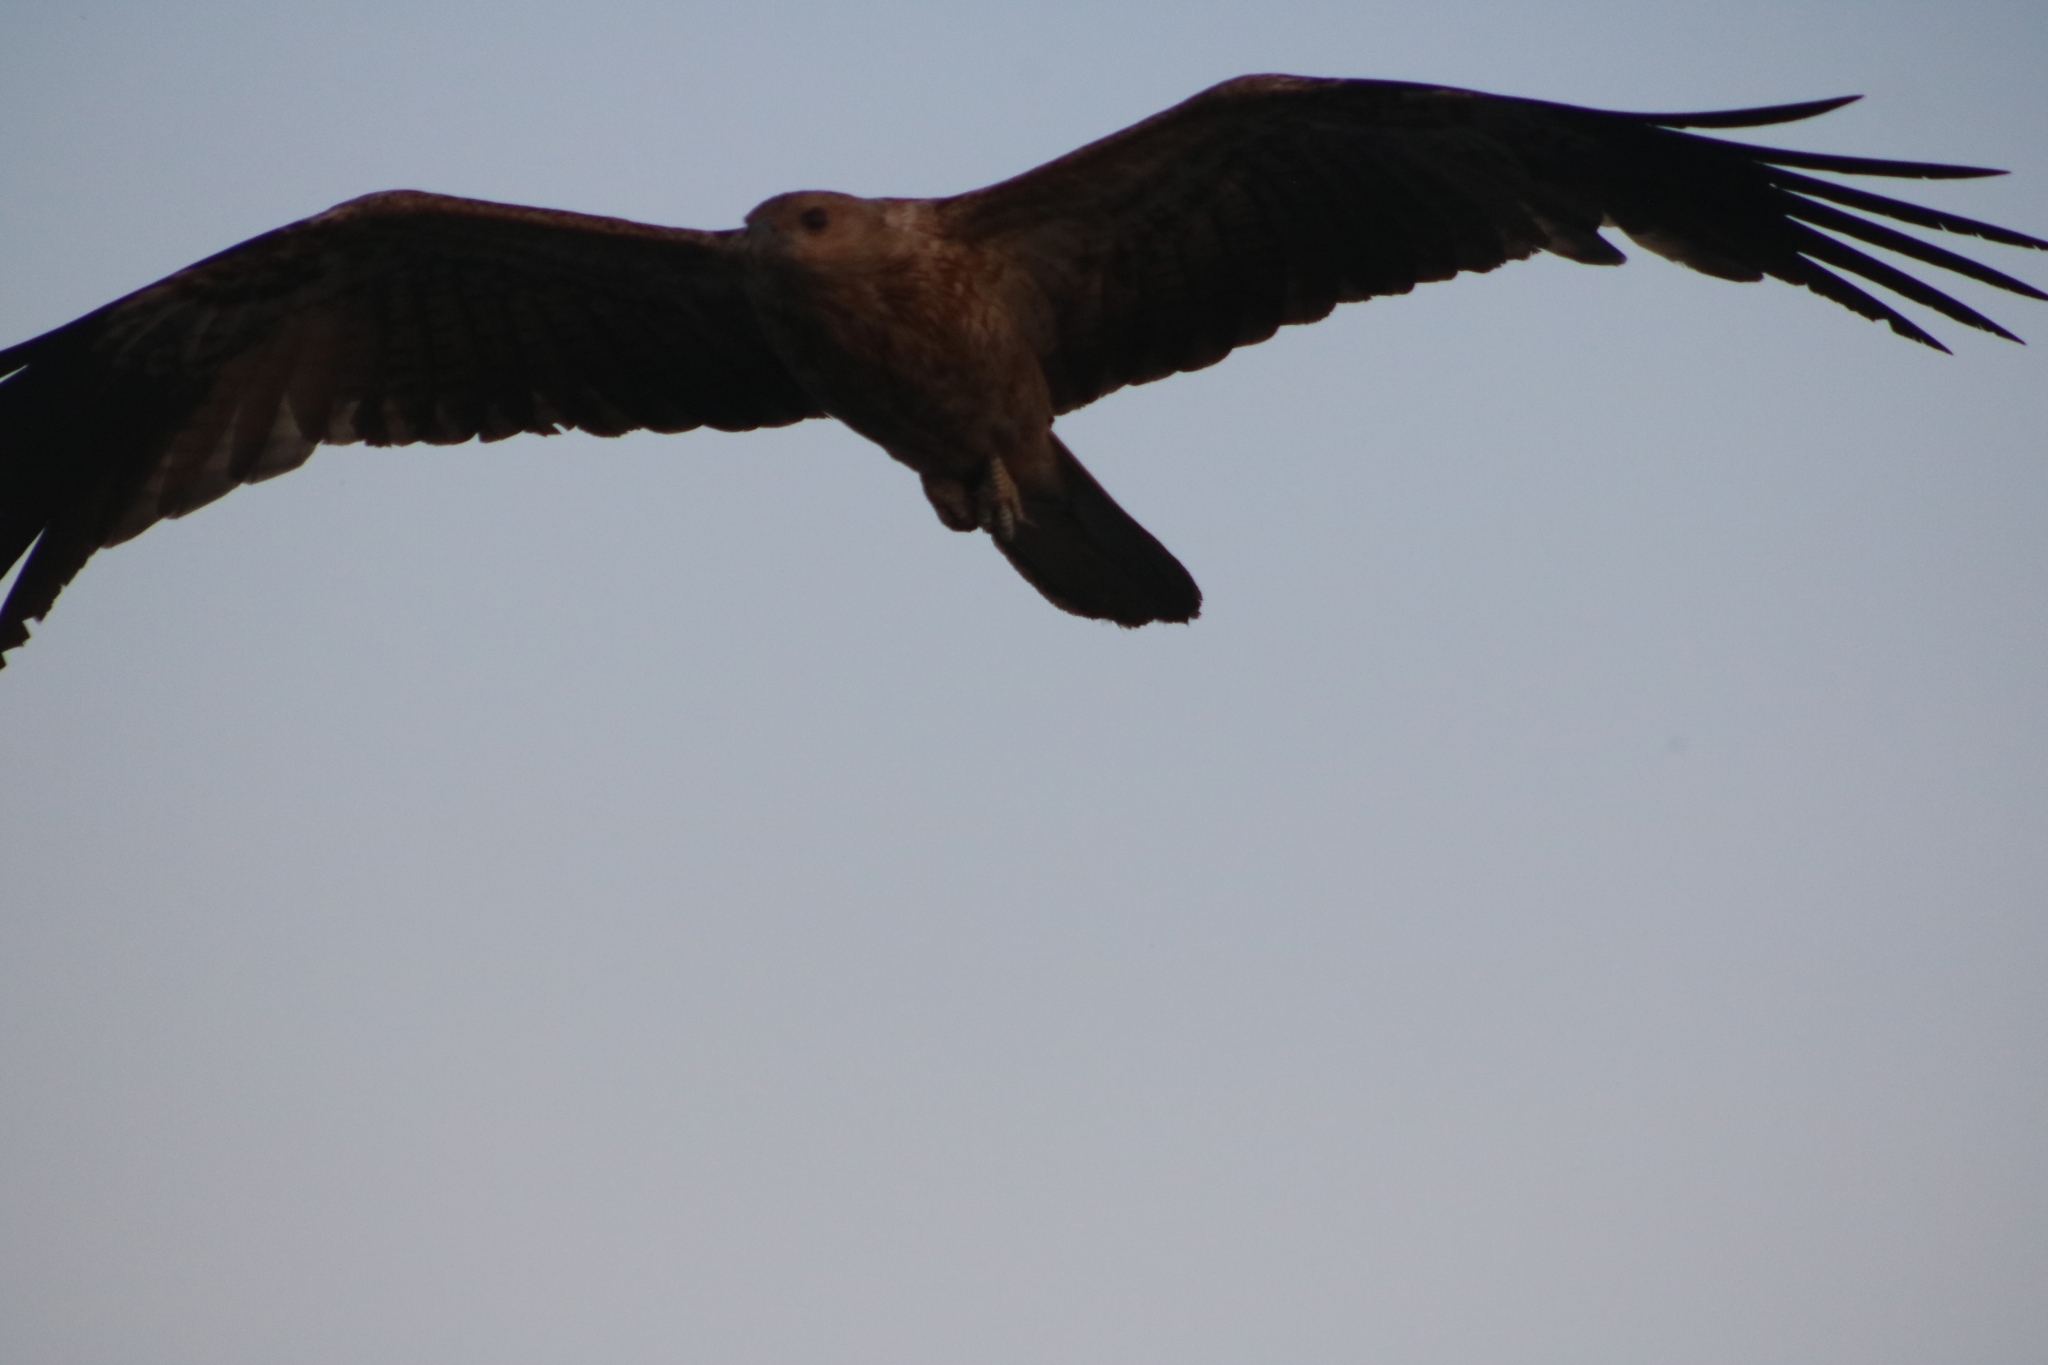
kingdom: Animalia
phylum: Chordata
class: Aves
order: Accipitriformes
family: Accipitridae
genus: Haliastur
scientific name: Haliastur sphenurus
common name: Whistling kite
